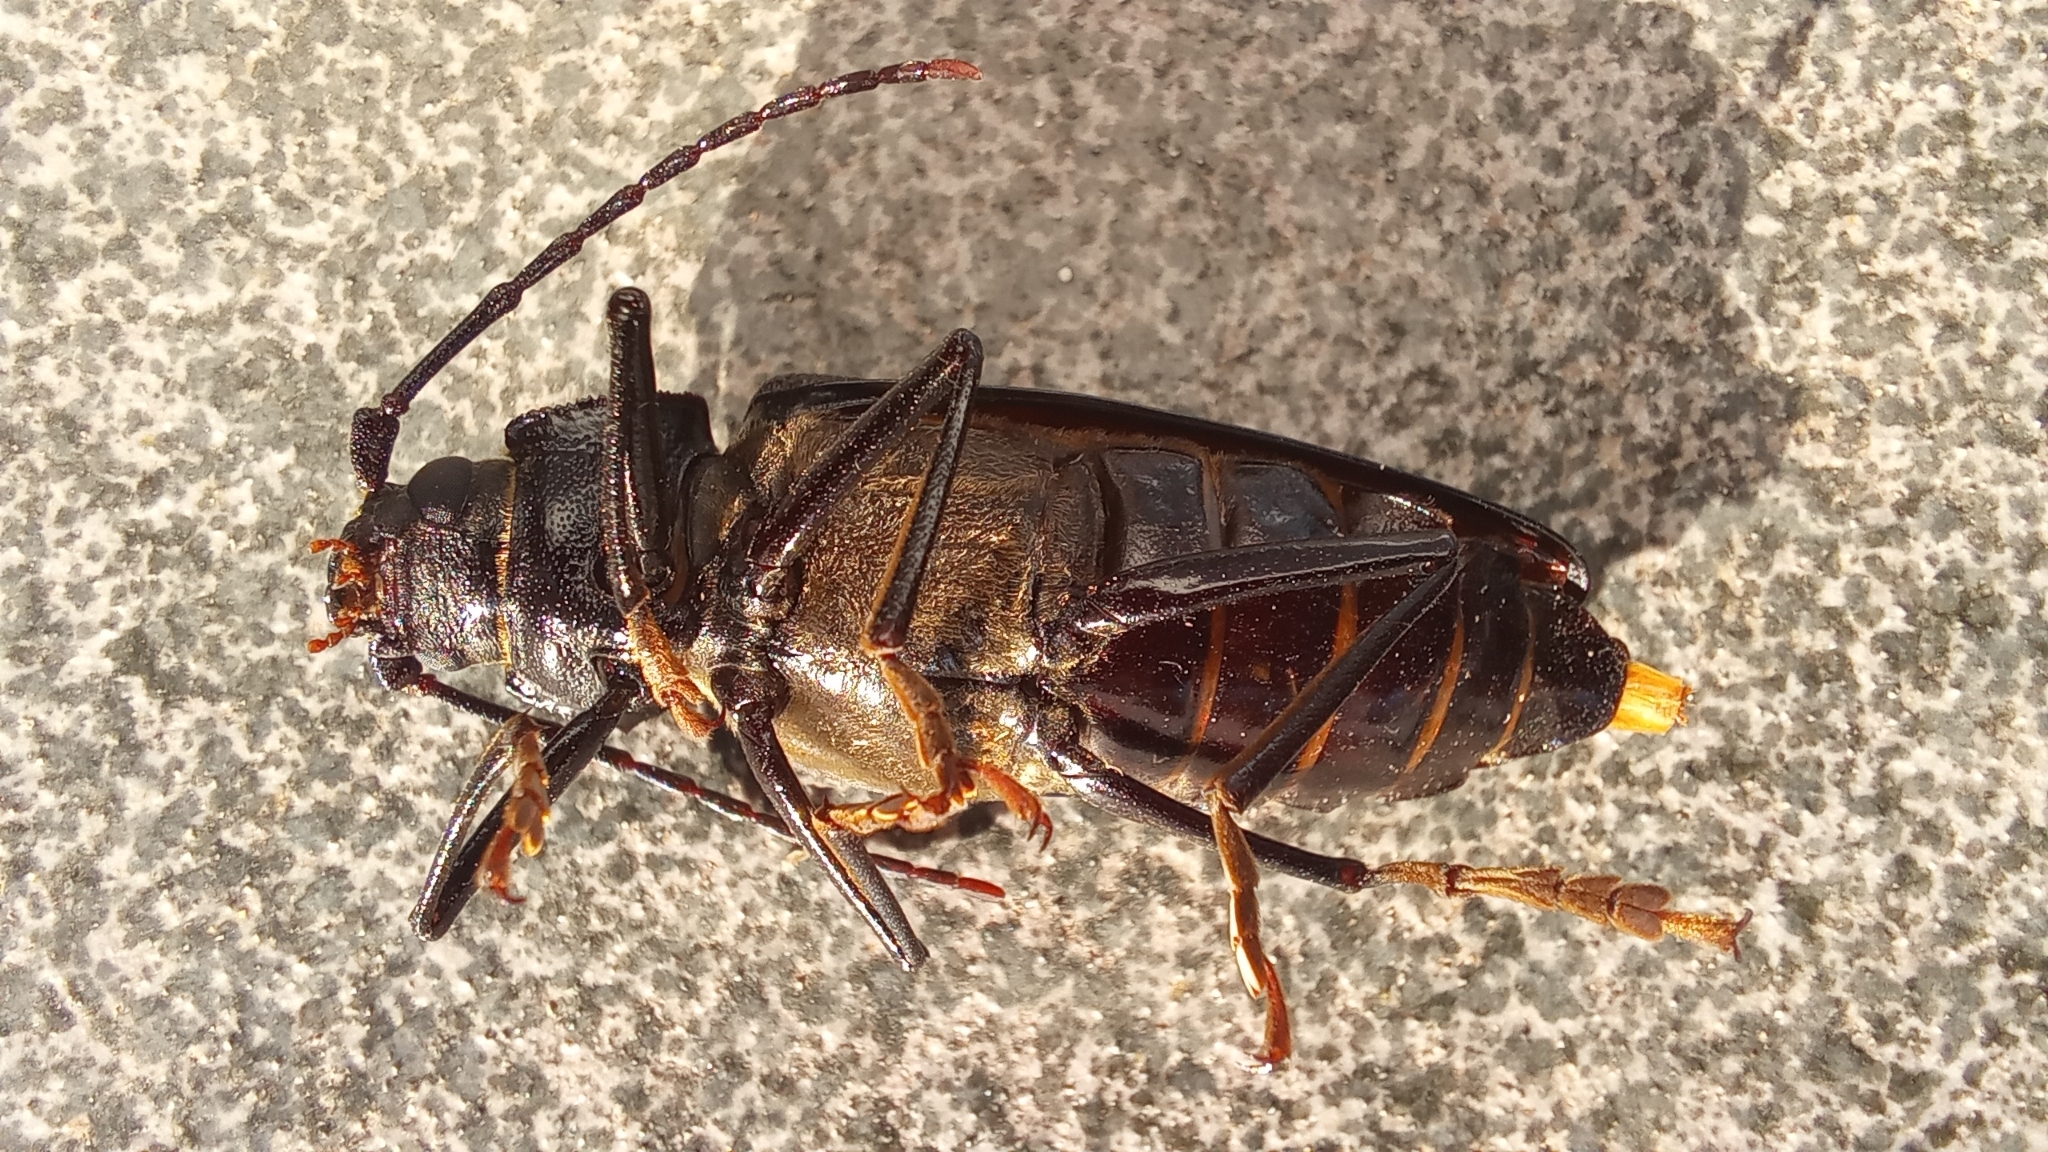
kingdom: Animalia
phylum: Arthropoda
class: Insecta
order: Coleoptera
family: Cerambycidae
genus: Ergates
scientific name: Ergates faber
